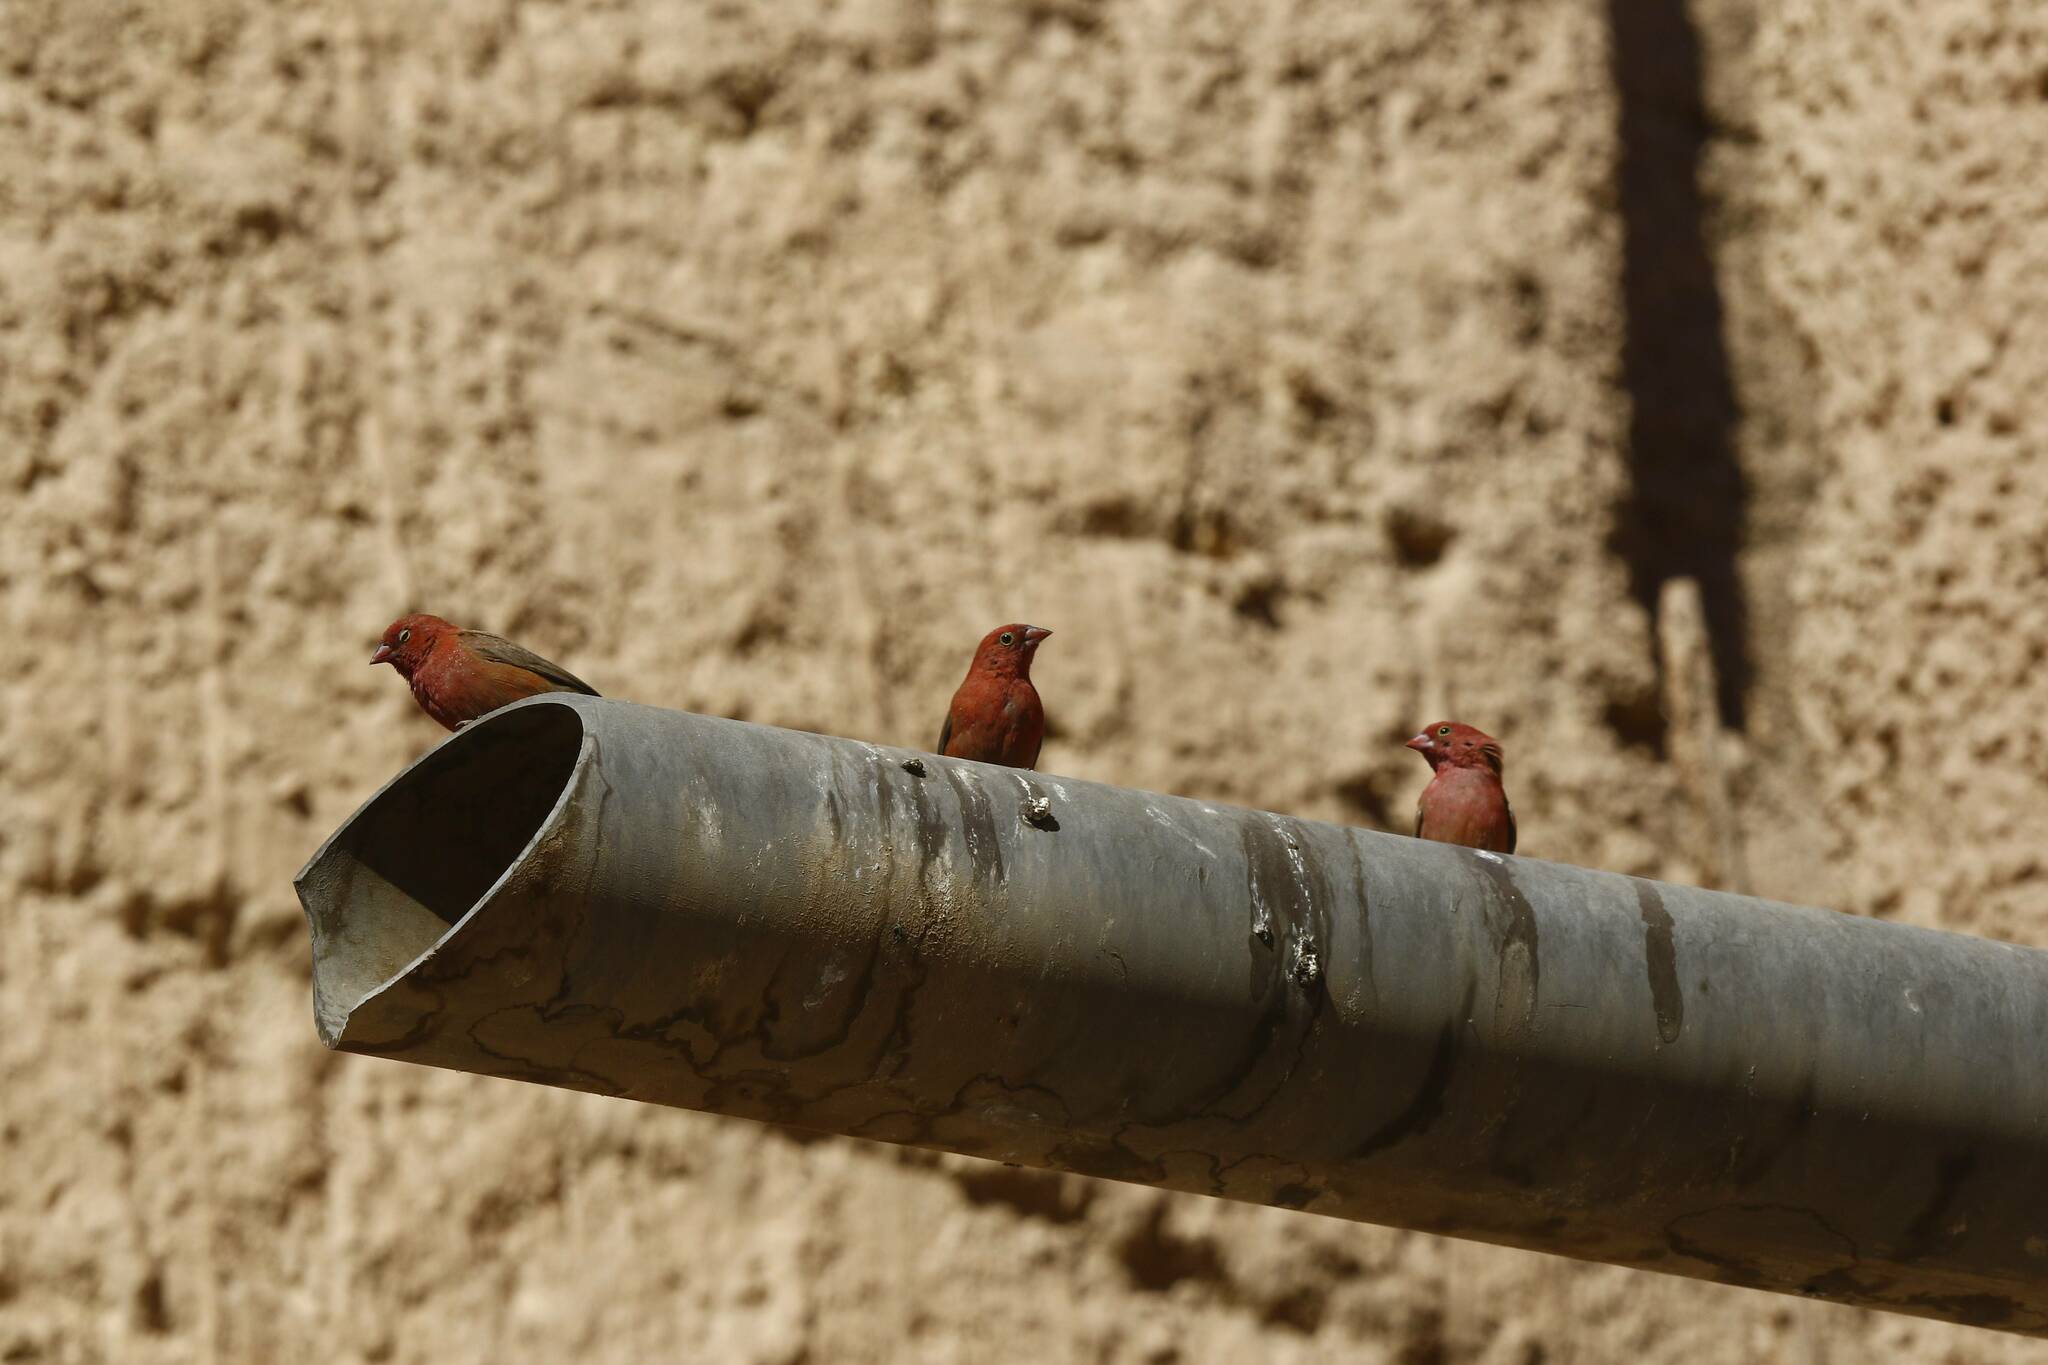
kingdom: Animalia
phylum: Chordata
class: Aves
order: Passeriformes
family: Estrildidae
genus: Lagonosticta
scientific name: Lagonosticta senegala
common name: Red-billed firefinch
